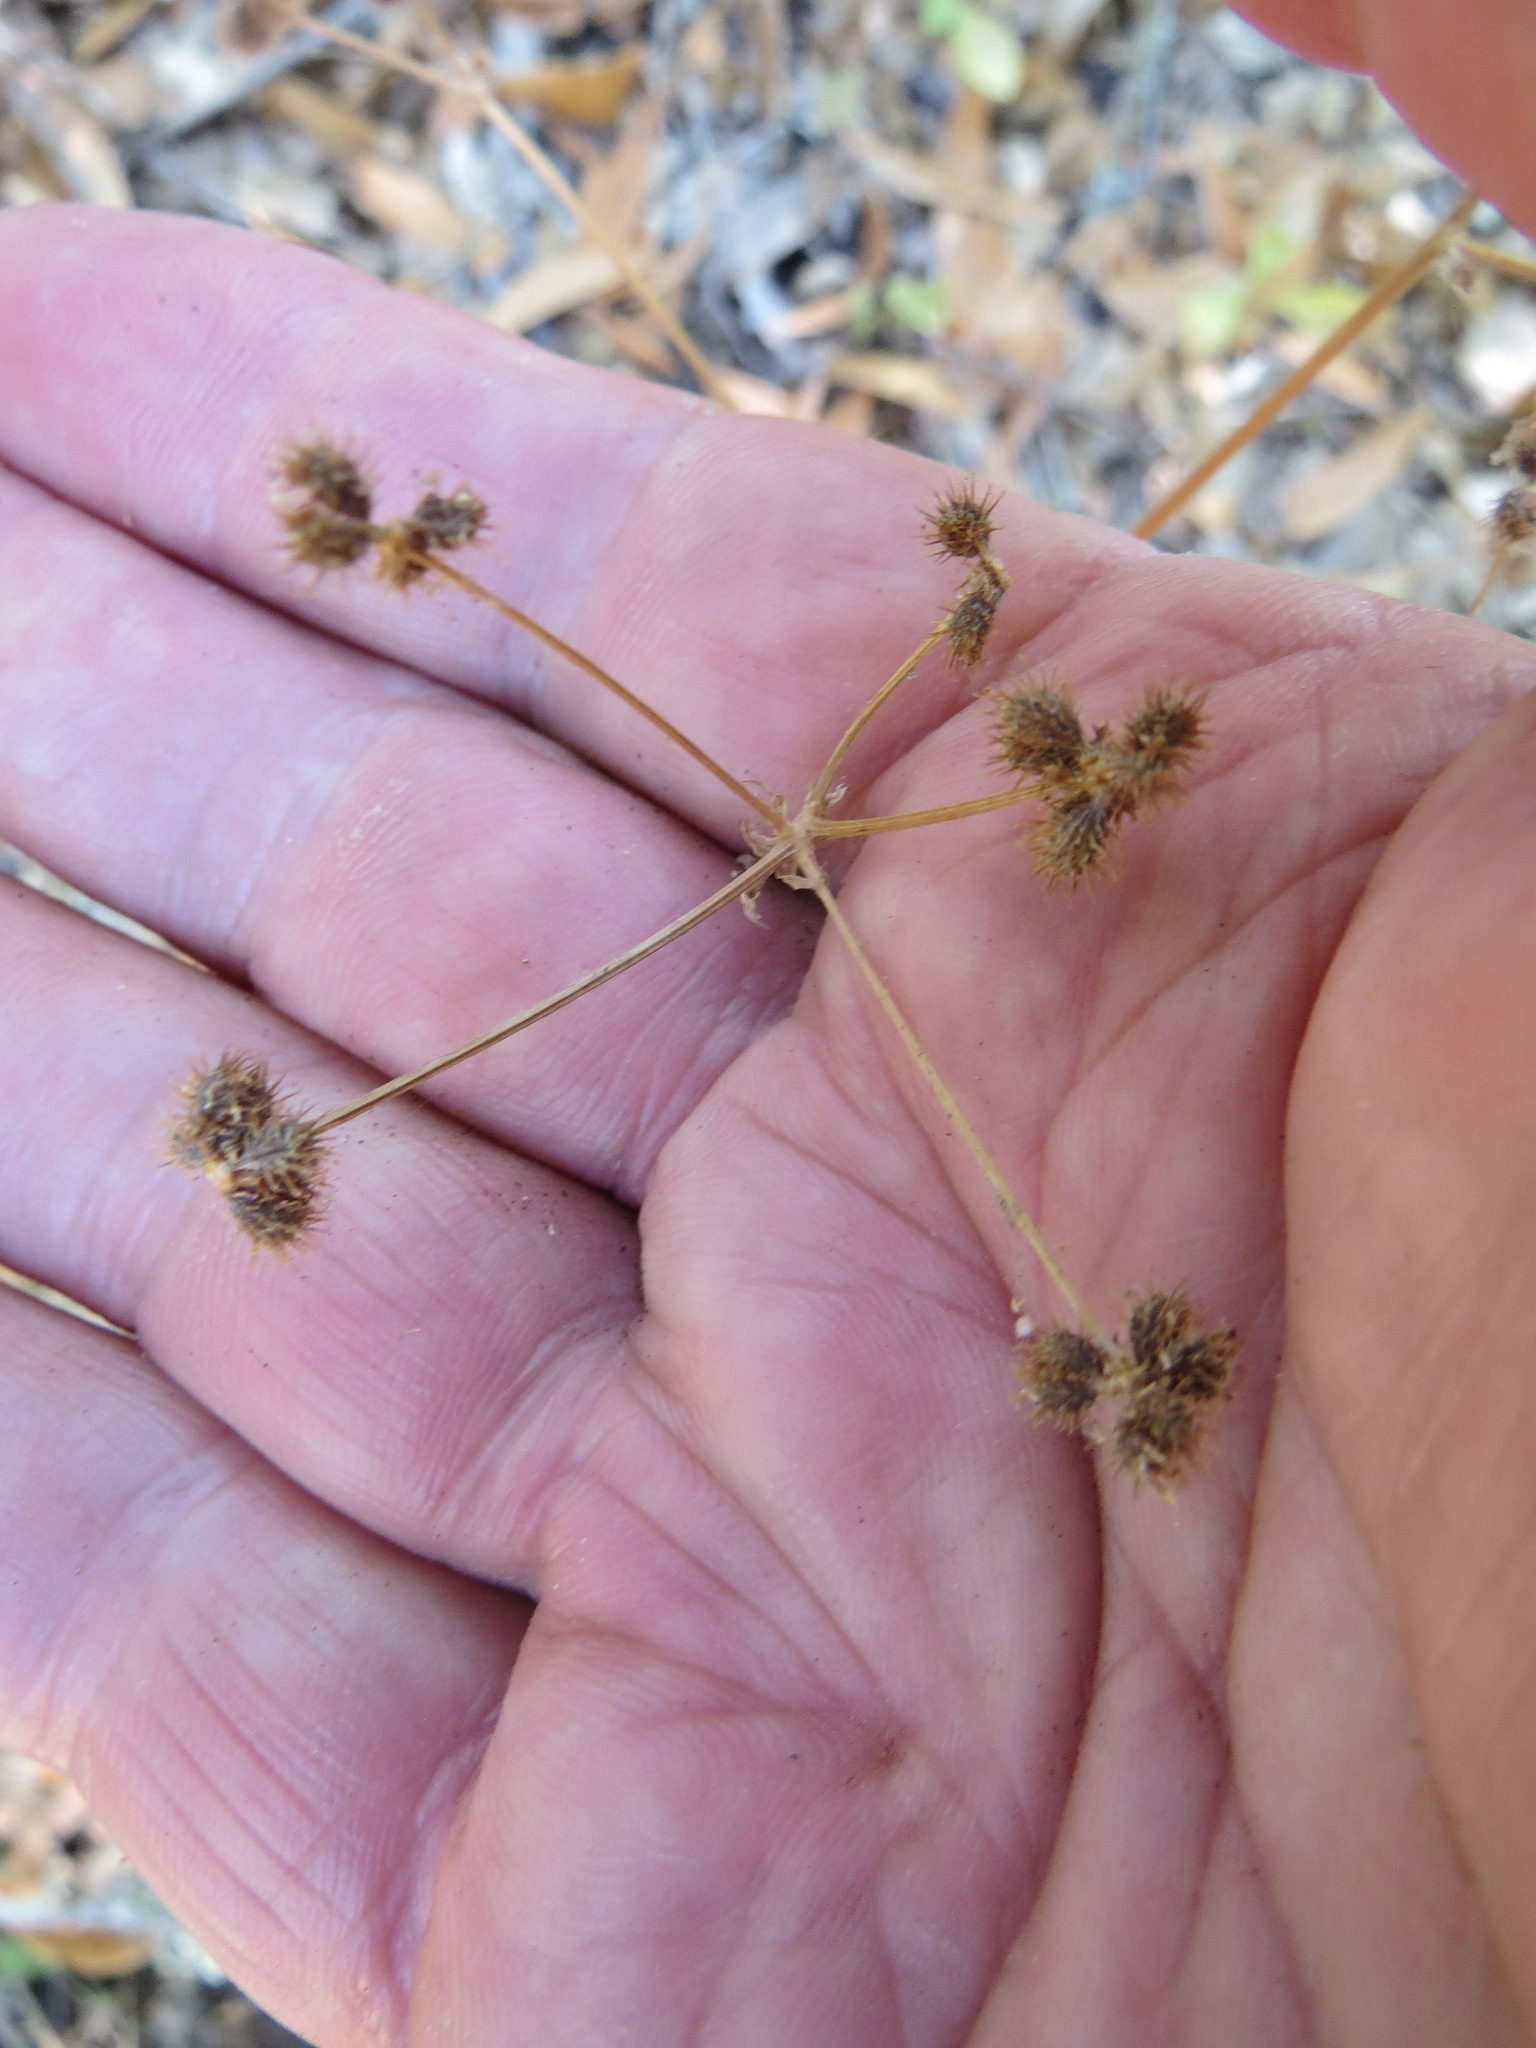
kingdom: Plantae
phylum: Tracheophyta
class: Magnoliopsida
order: Boraginales
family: Boraginaceae
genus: Adelinia
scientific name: Adelinia grande
